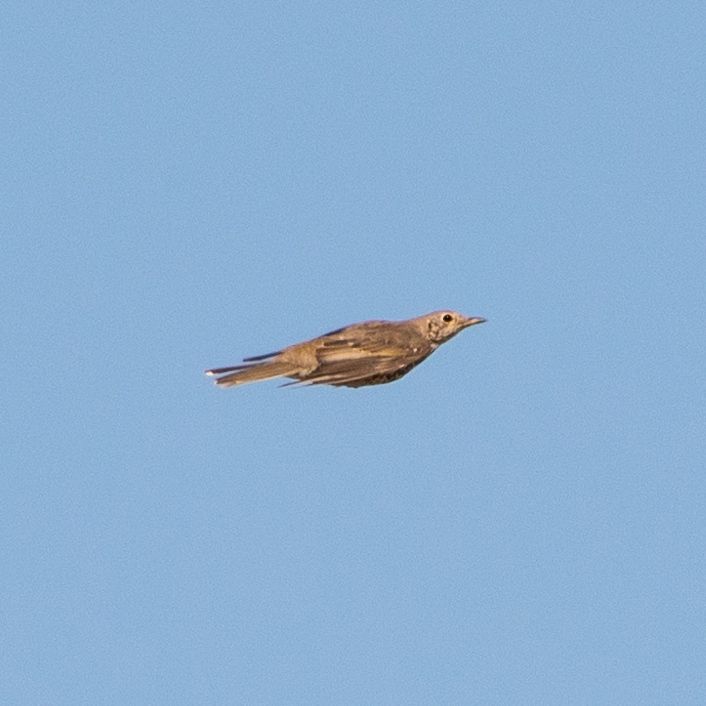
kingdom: Animalia
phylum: Chordata
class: Aves
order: Passeriformes
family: Turdidae
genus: Turdus
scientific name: Turdus viscivorus
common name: Mistle thrush
